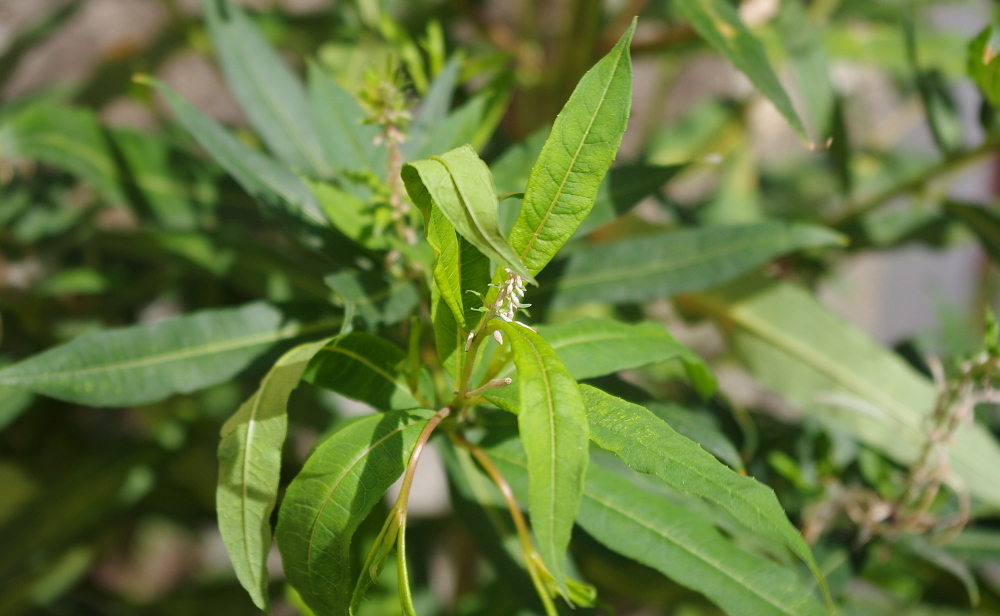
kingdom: Plantae
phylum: Tracheophyta
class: Magnoliopsida
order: Myrtales
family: Onagraceae
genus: Chamaenerion
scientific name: Chamaenerion angustifolium
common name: Fireweed
